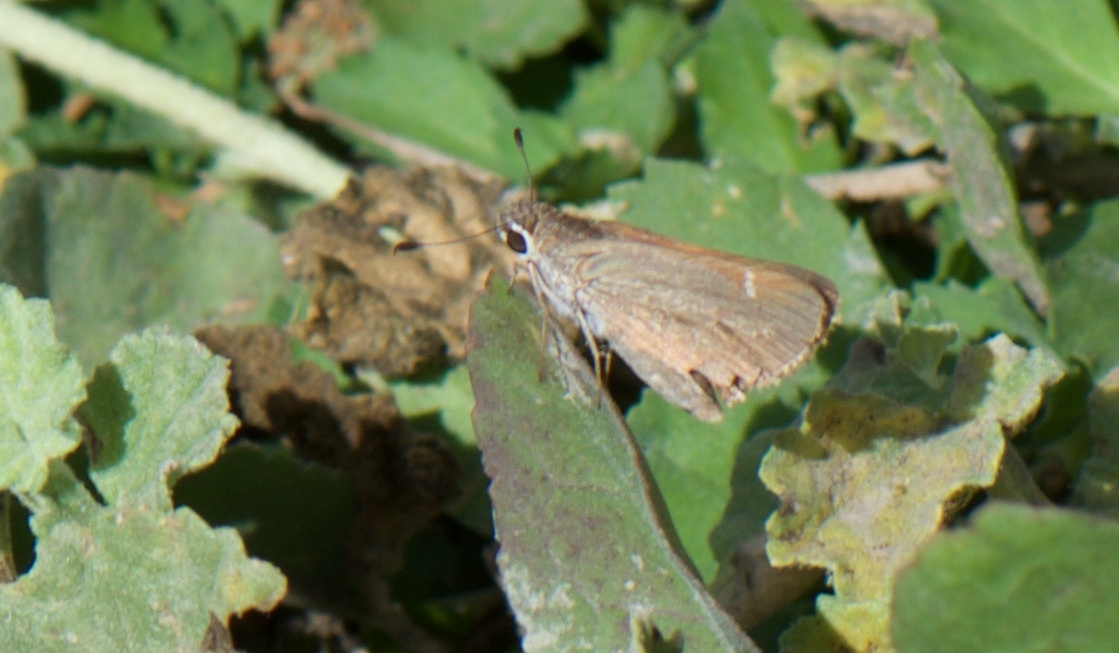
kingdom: Animalia
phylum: Arthropoda
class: Insecta
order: Lepidoptera
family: Hesperiidae
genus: Lerodea
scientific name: Lerodea eufala
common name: Eufala skipper
